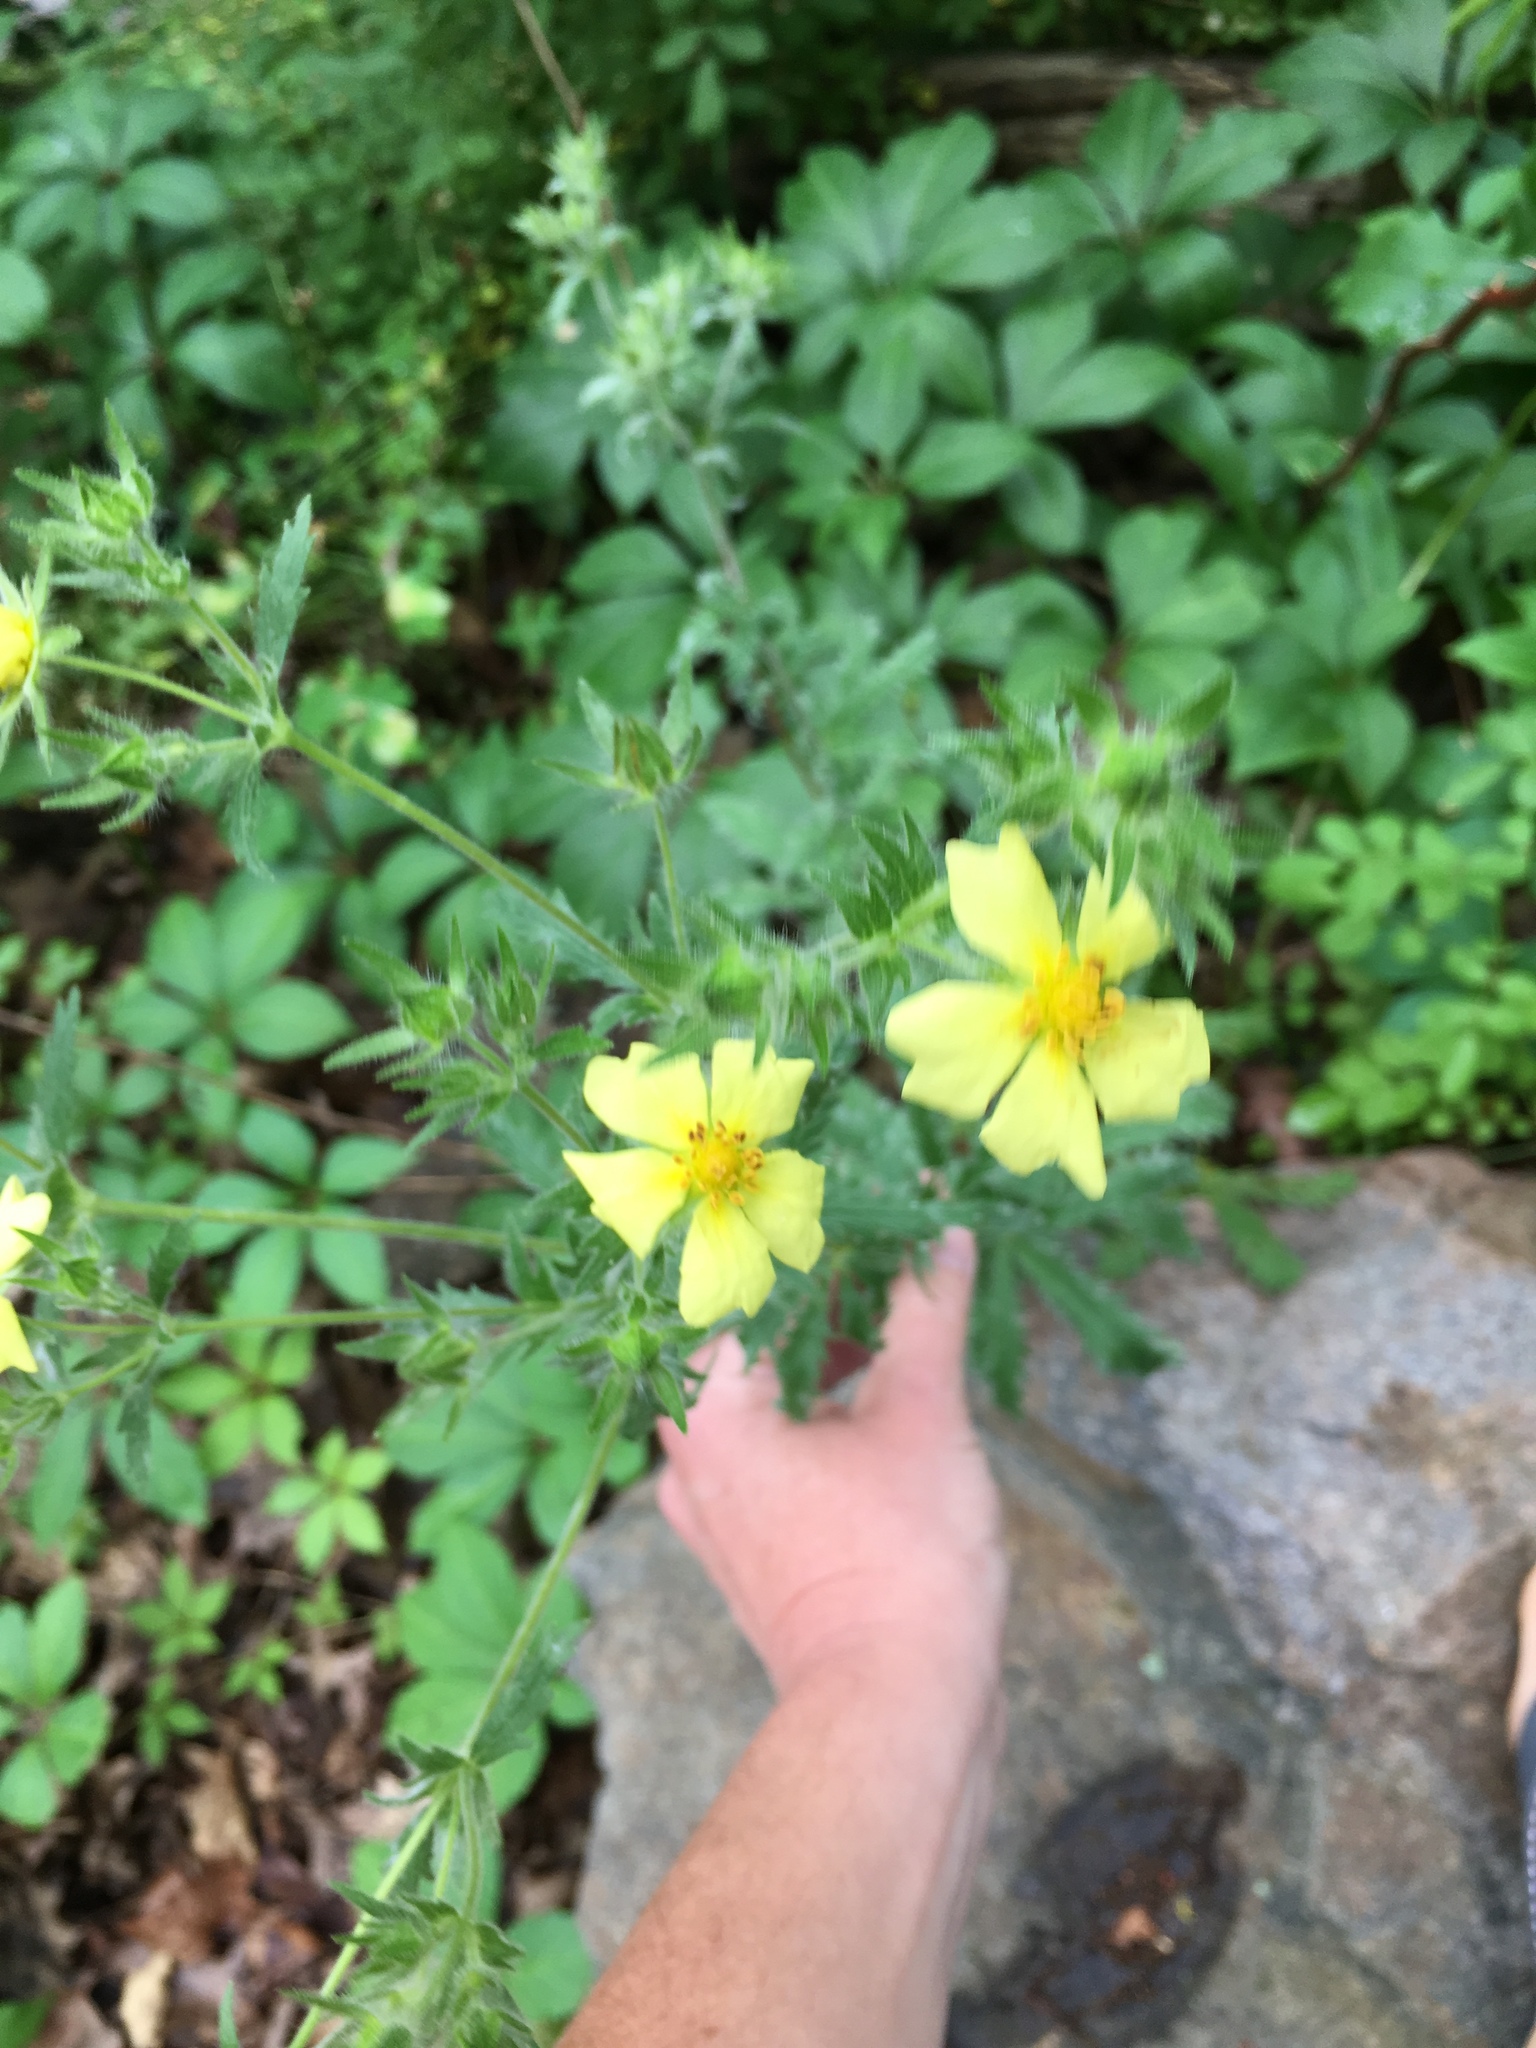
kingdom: Plantae
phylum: Tracheophyta
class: Magnoliopsida
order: Rosales
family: Rosaceae
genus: Potentilla
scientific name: Potentilla recta
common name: Sulphur cinquefoil
